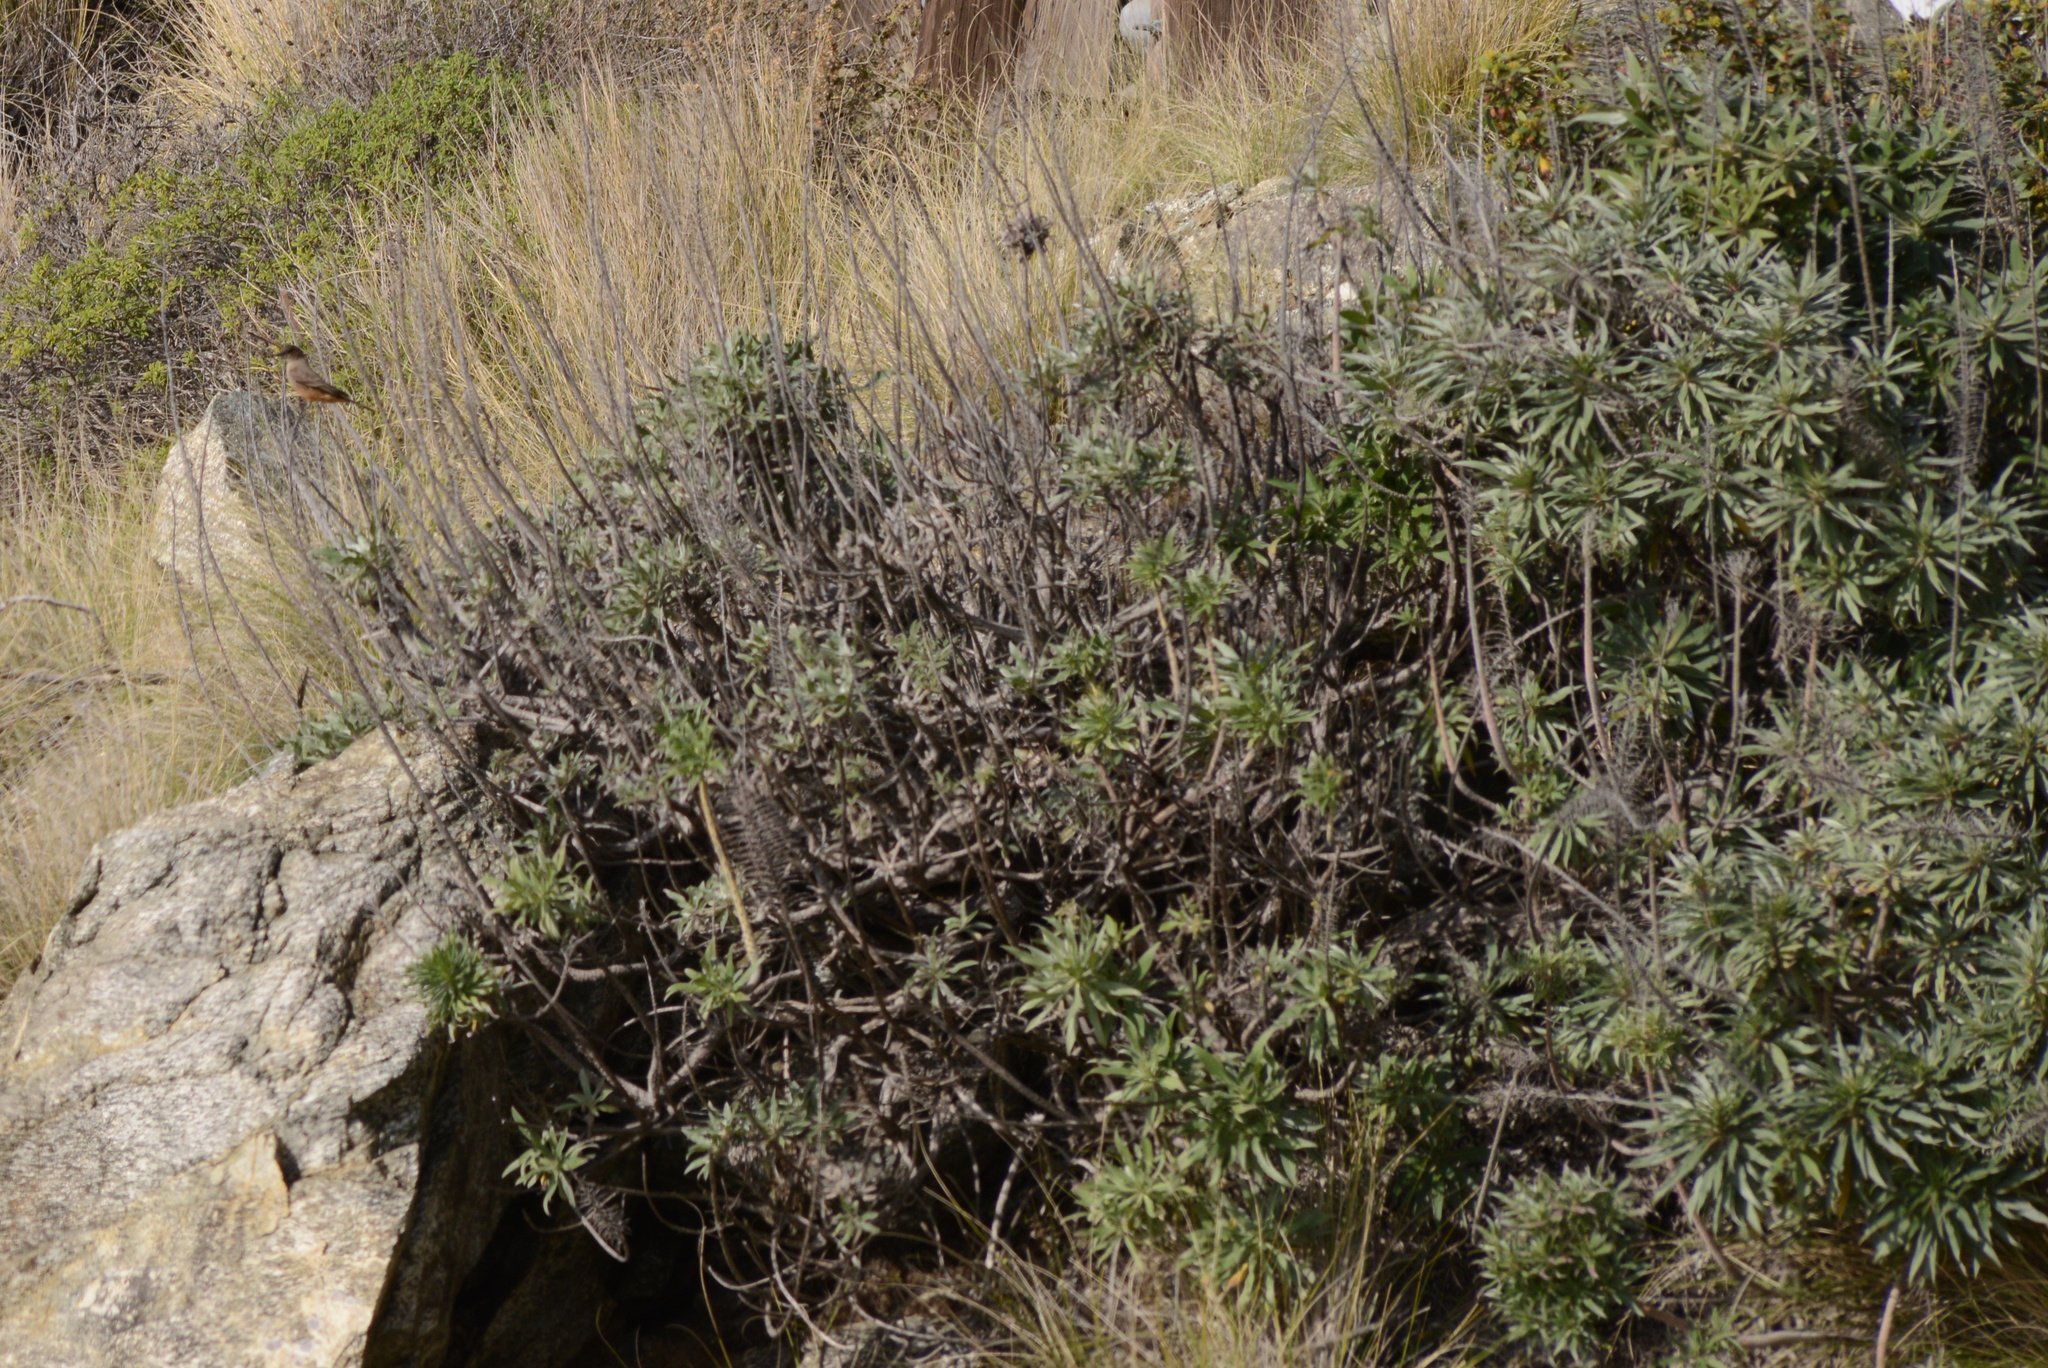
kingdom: Plantae
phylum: Tracheophyta
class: Magnoliopsida
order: Boraginales
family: Boraginaceae
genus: Echium
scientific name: Echium candicans
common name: Pride of madeira
